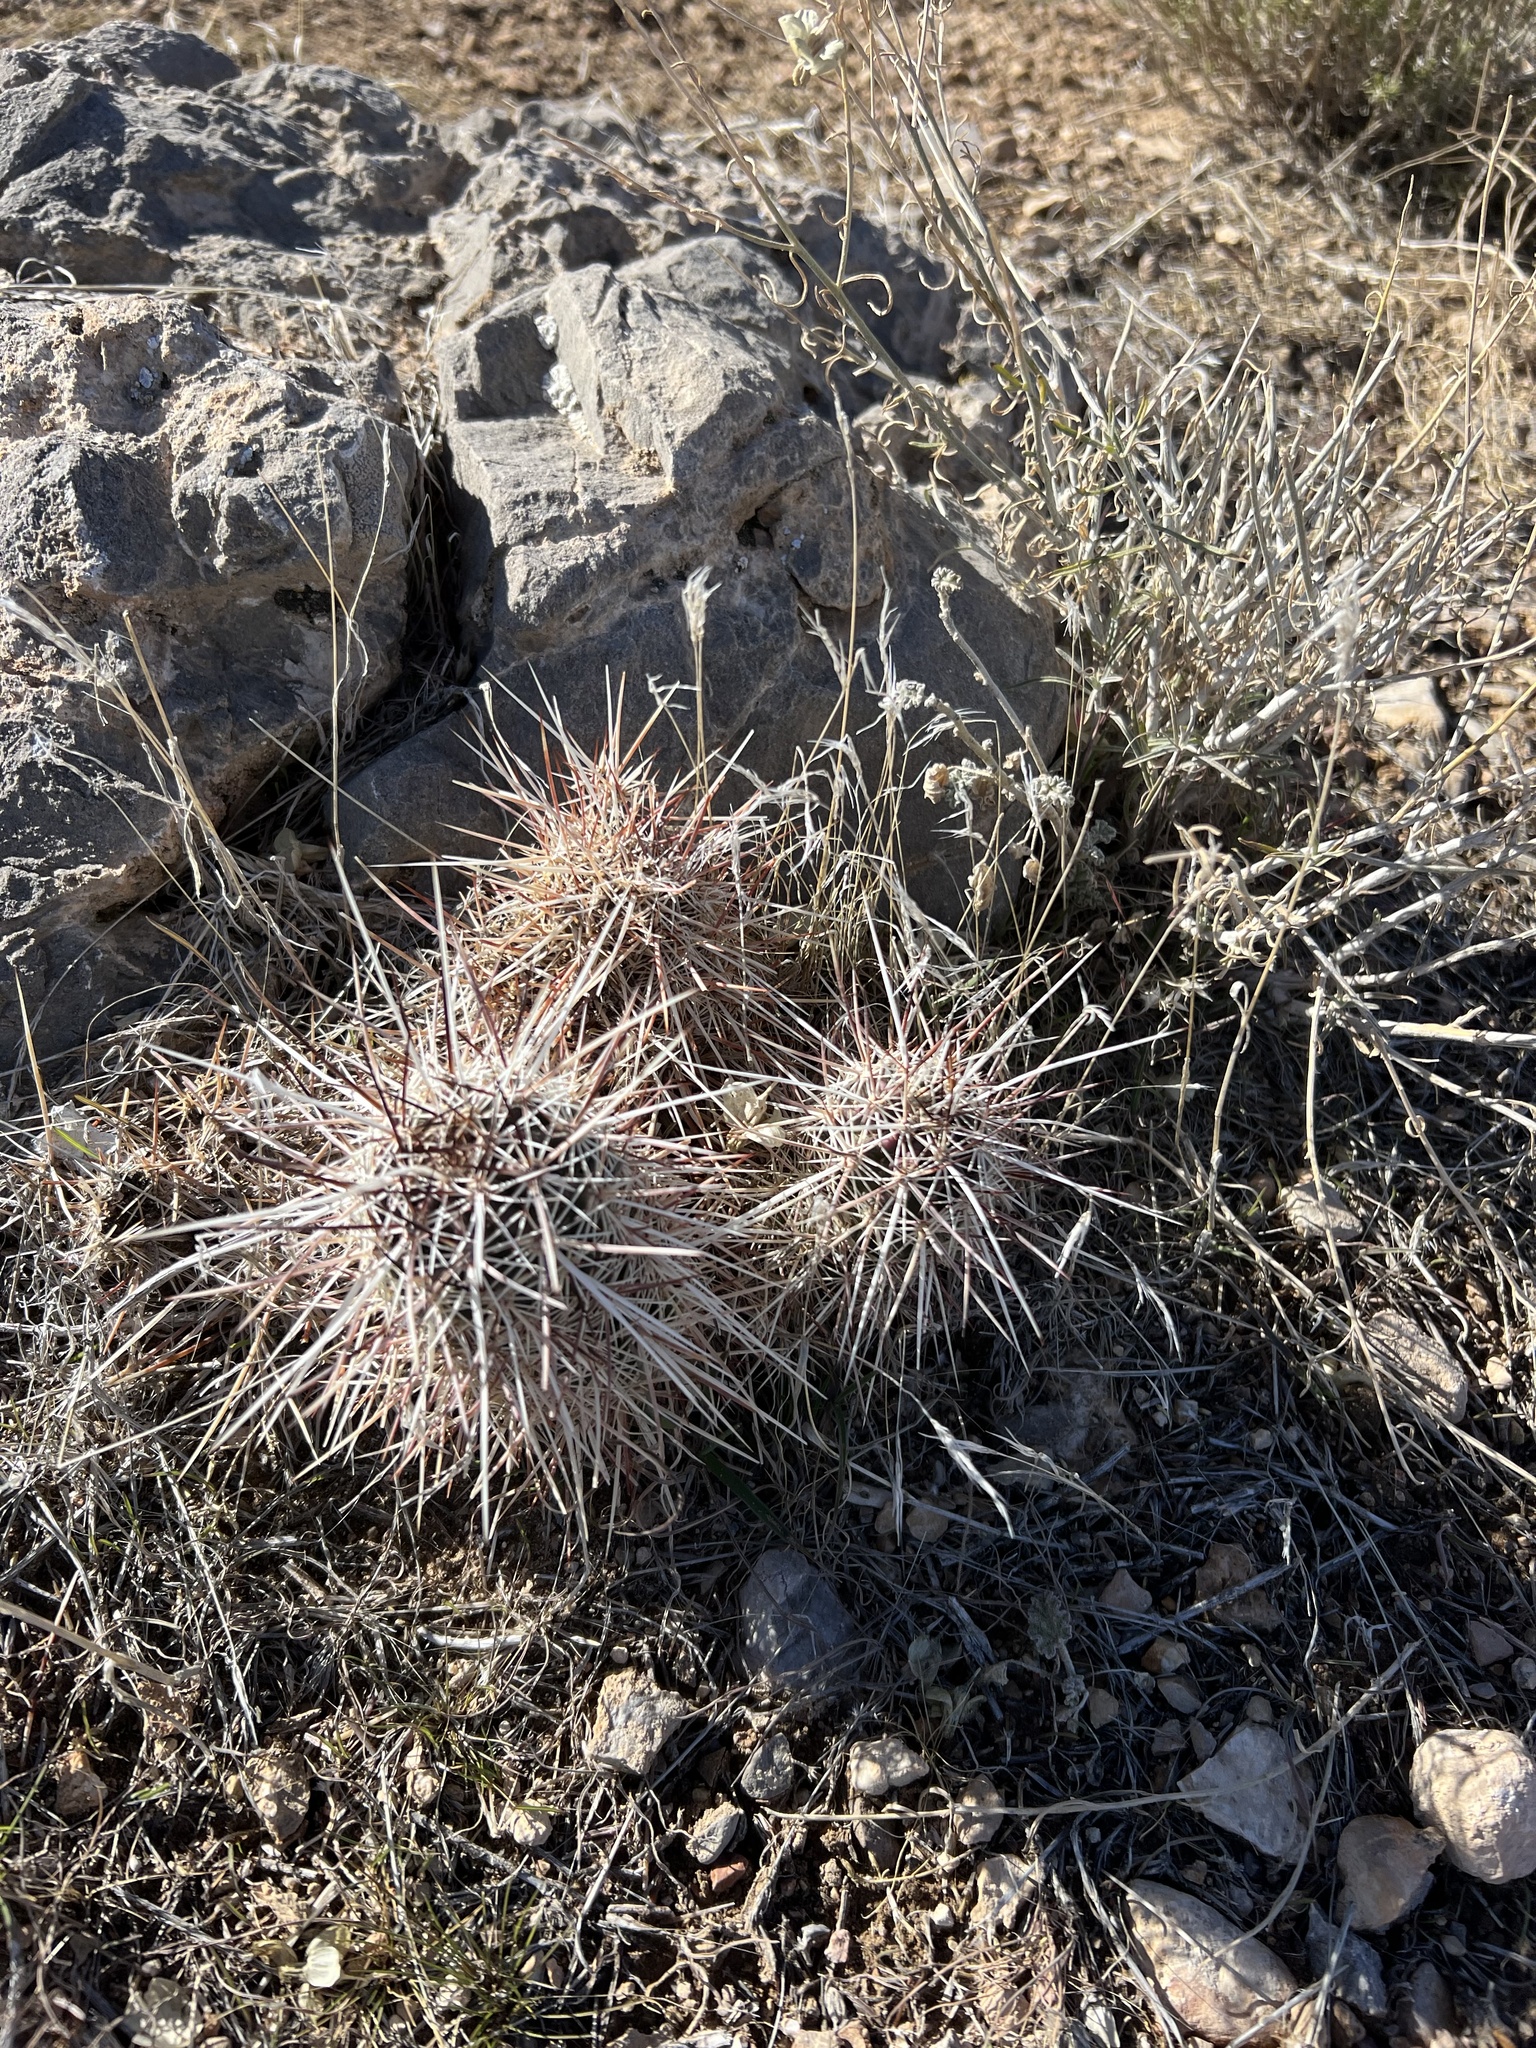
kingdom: Plantae
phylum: Tracheophyta
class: Magnoliopsida
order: Caryophyllales
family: Cactaceae
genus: Echinocereus
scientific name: Echinocereus engelmannii
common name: Engelmann's hedgehog cactus
